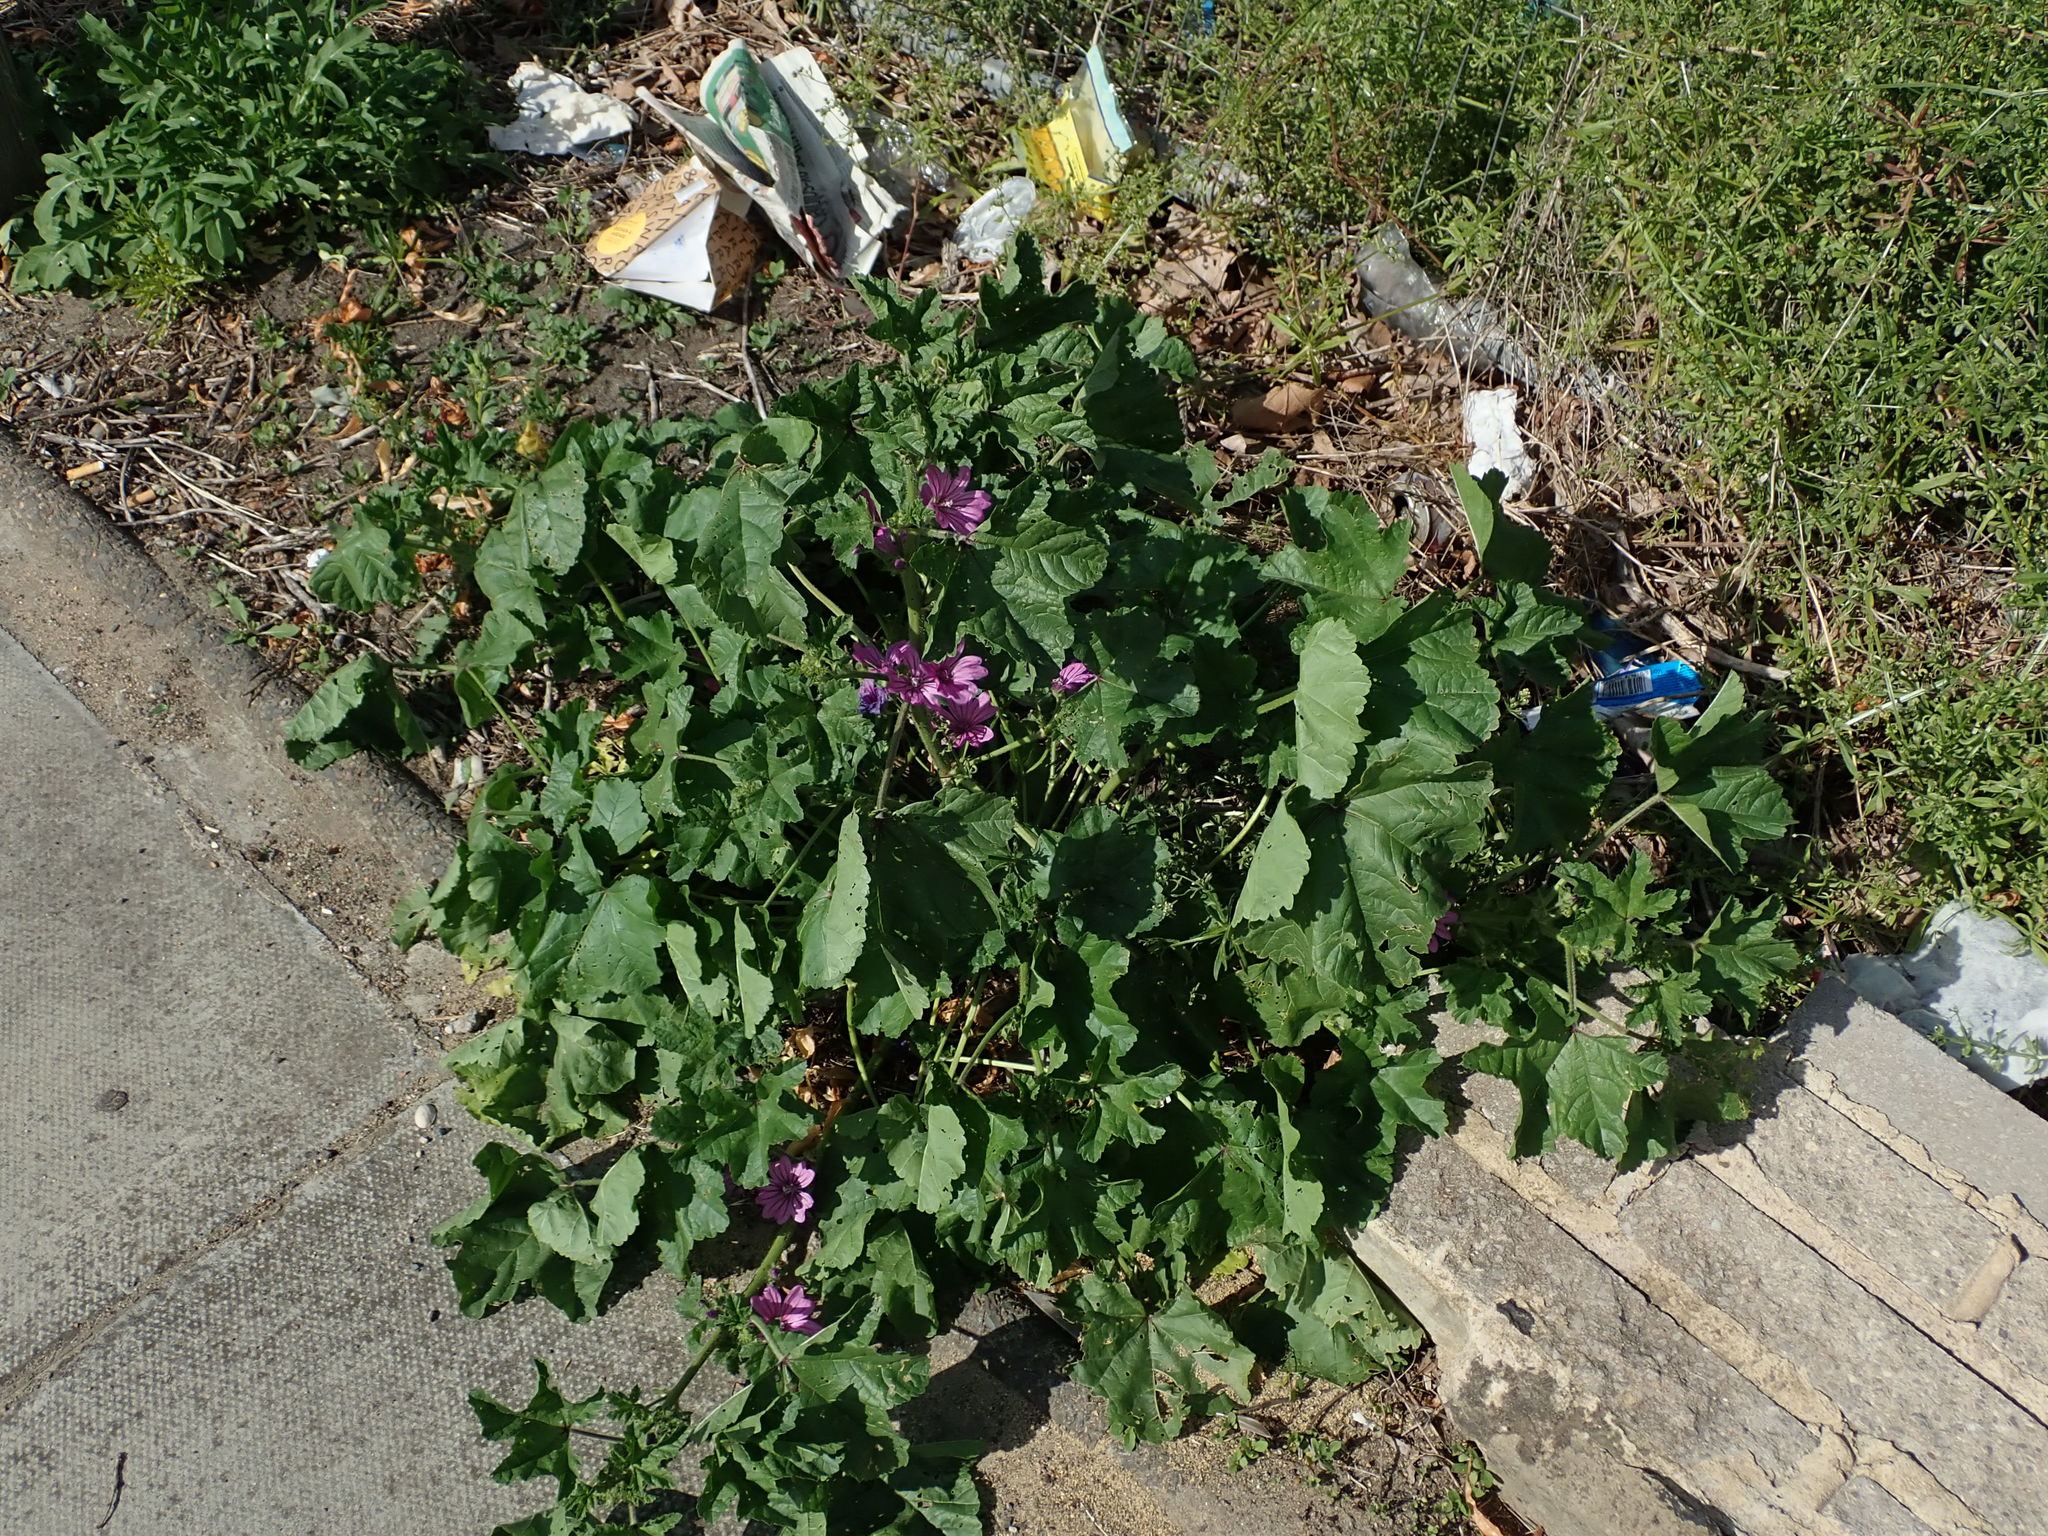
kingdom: Plantae
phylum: Tracheophyta
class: Magnoliopsida
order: Malvales
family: Malvaceae
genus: Malva
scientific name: Malva sylvestris
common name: Common mallow
